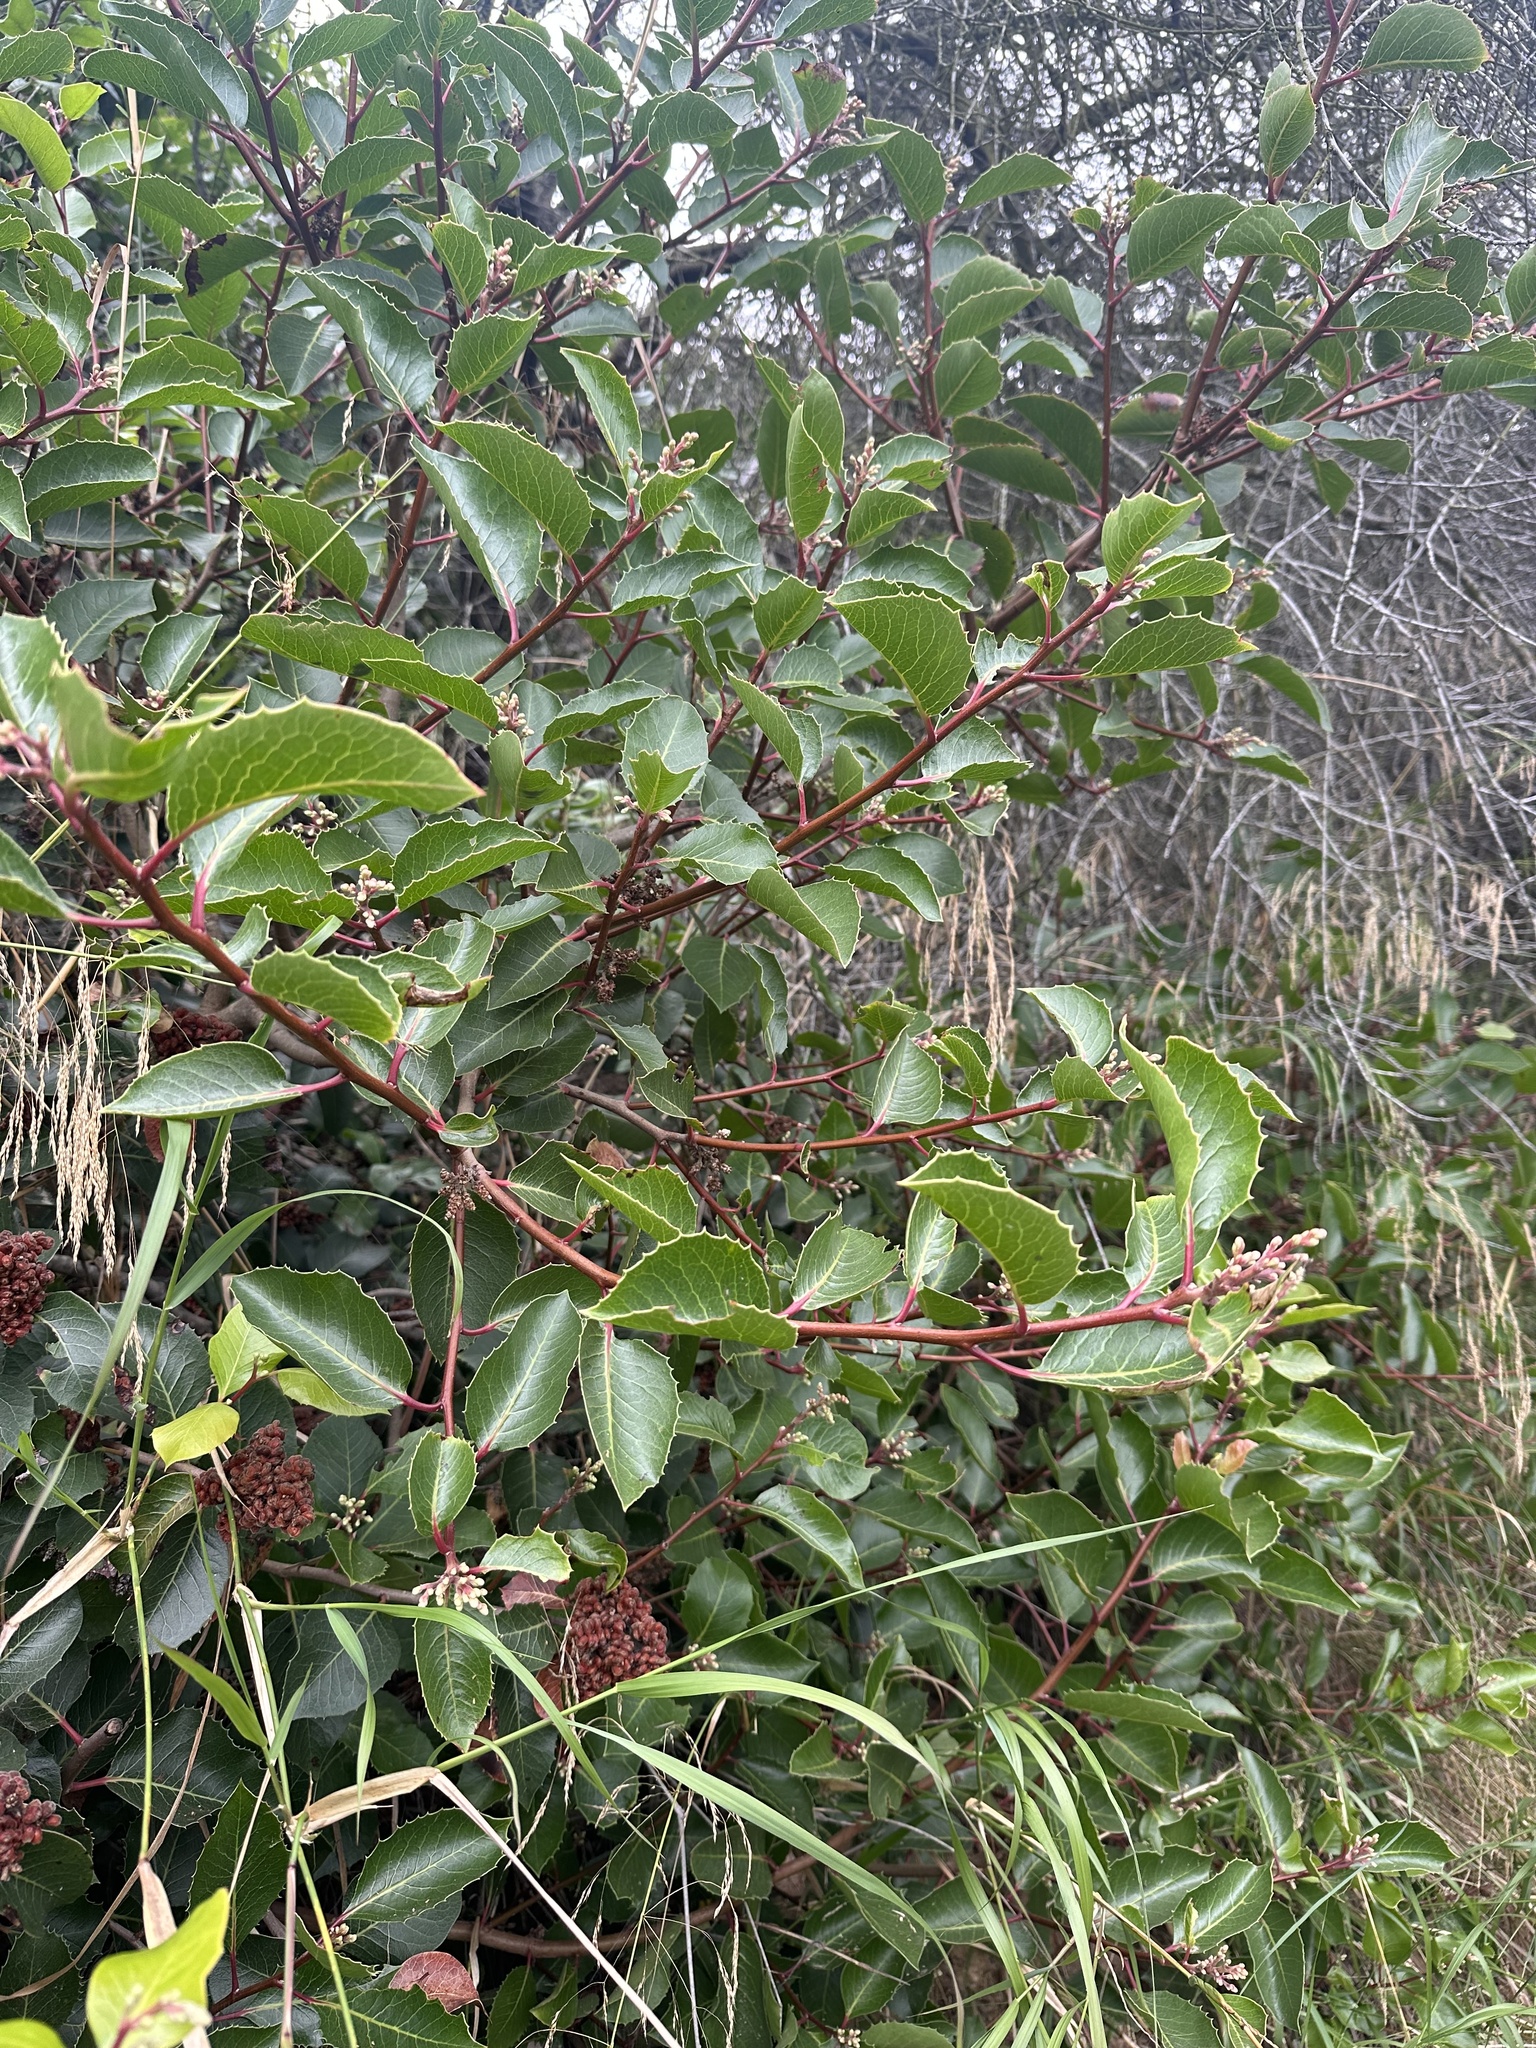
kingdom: Plantae
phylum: Tracheophyta
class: Magnoliopsida
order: Sapindales
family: Anacardiaceae
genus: Rhus
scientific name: Rhus ovata
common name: Sugar sumac
